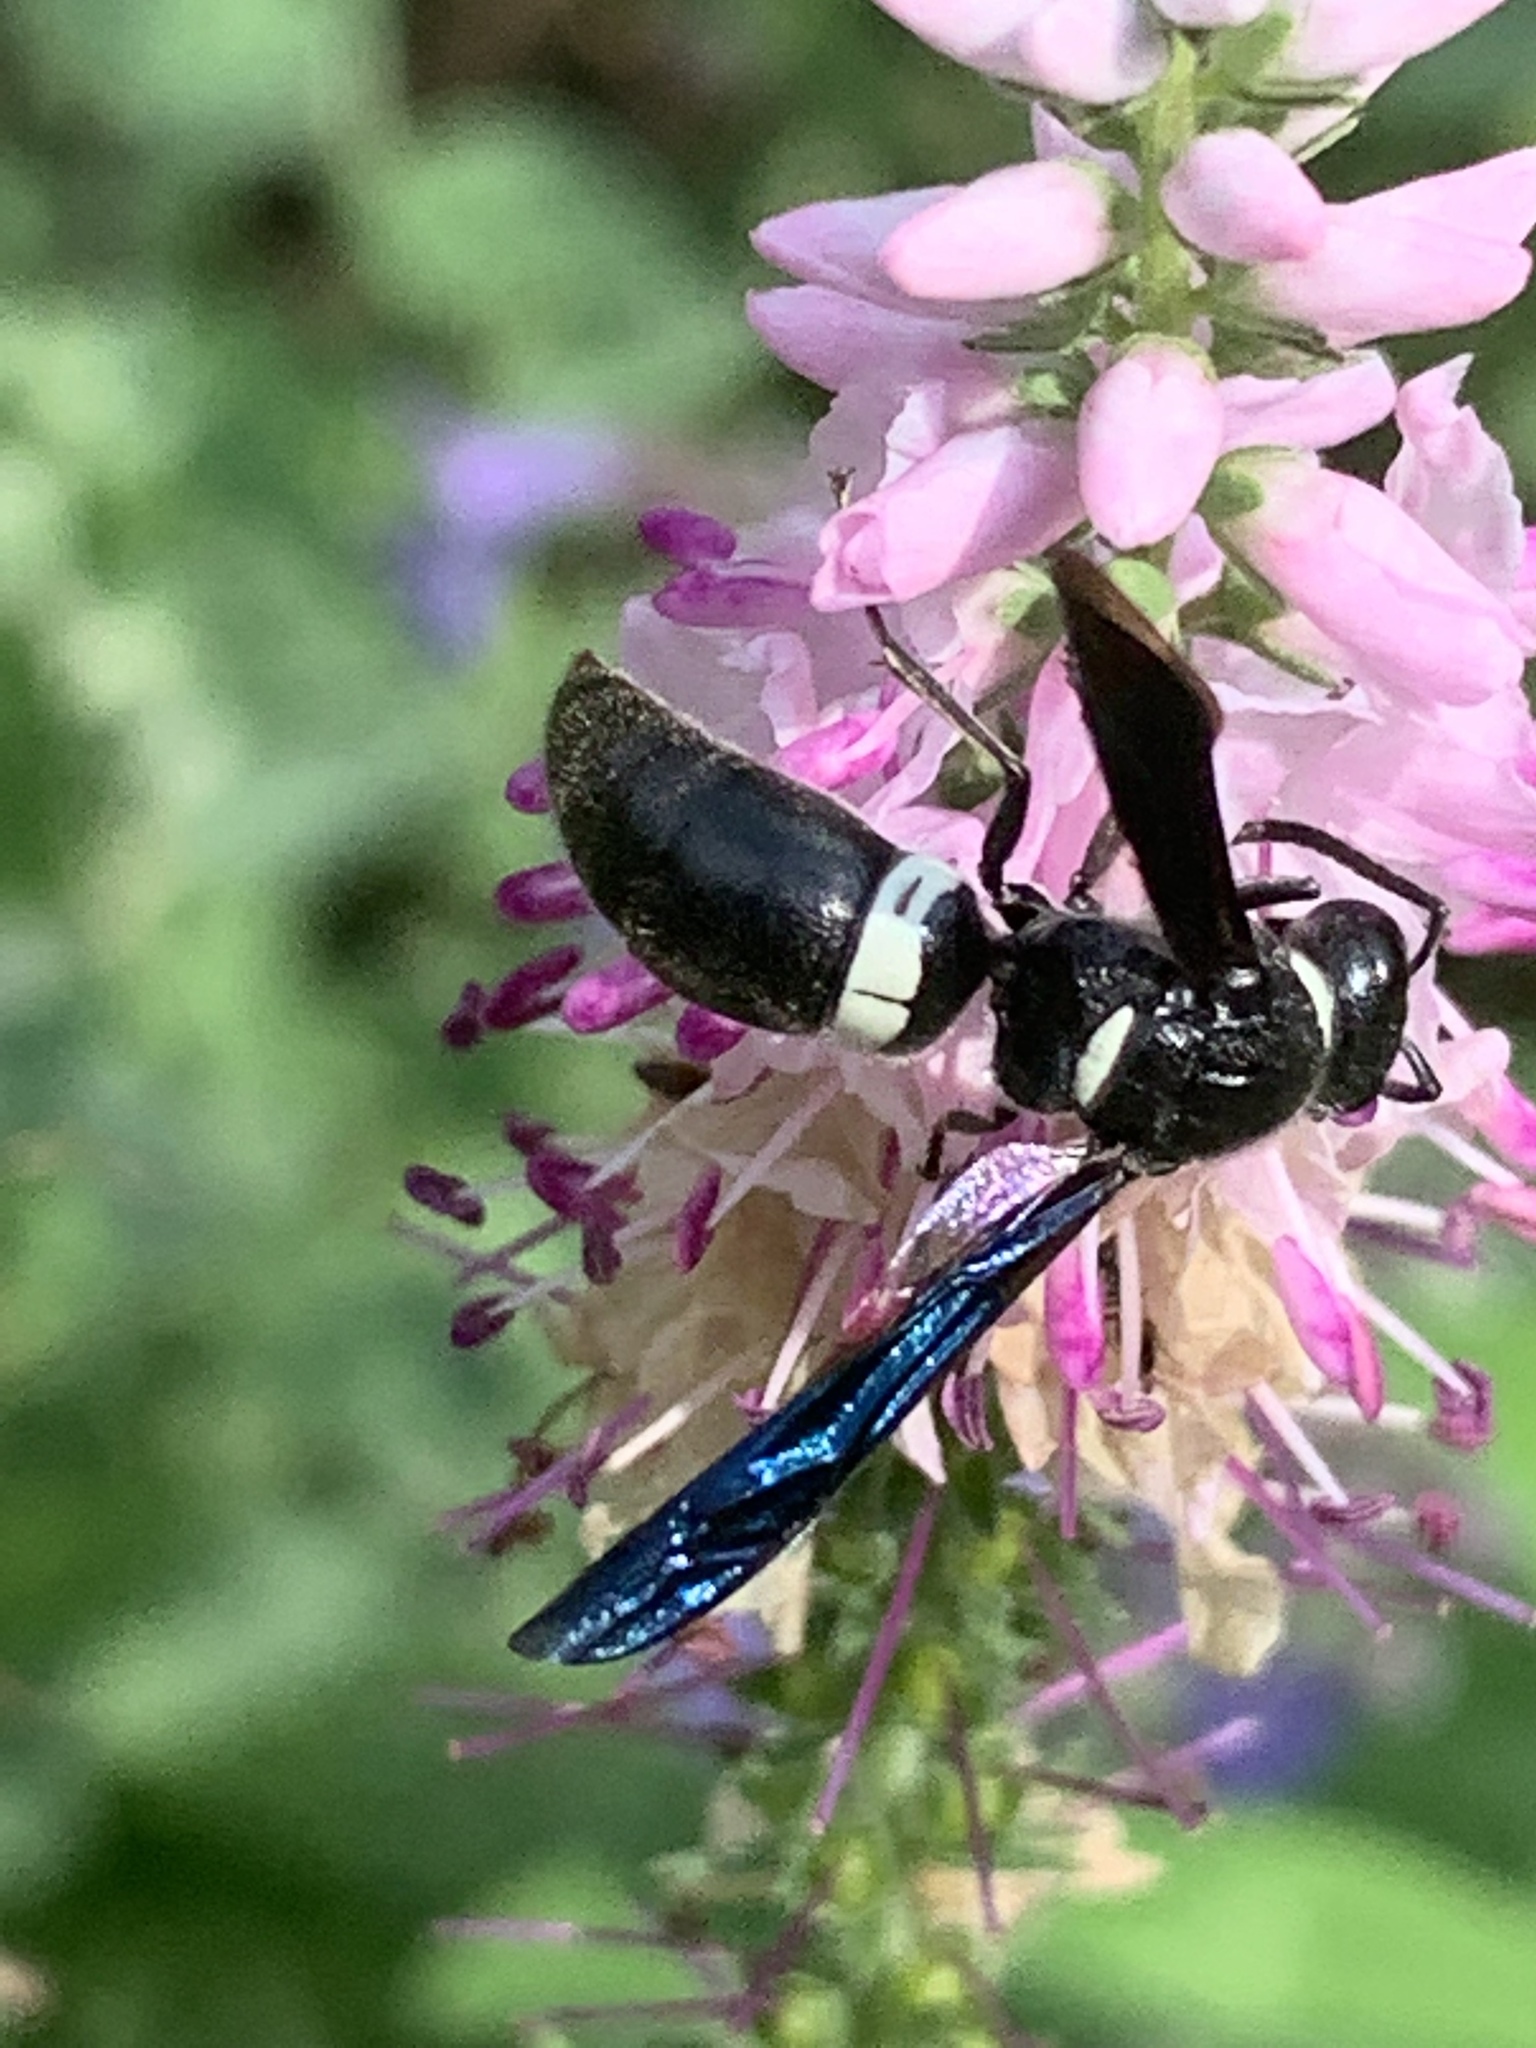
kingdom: Animalia
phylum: Arthropoda
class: Insecta
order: Hymenoptera
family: Eumenidae
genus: Monobia
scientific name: Monobia quadridens
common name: Four-toothed mason wasp
